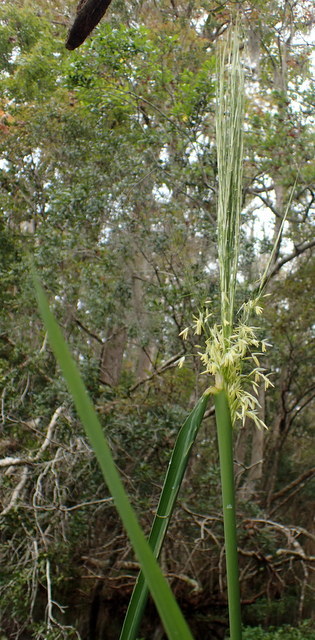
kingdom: Plantae
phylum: Tracheophyta
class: Liliopsida
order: Poales
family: Poaceae
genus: Zizania
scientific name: Zizania aquatica
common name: Annual wildrice
